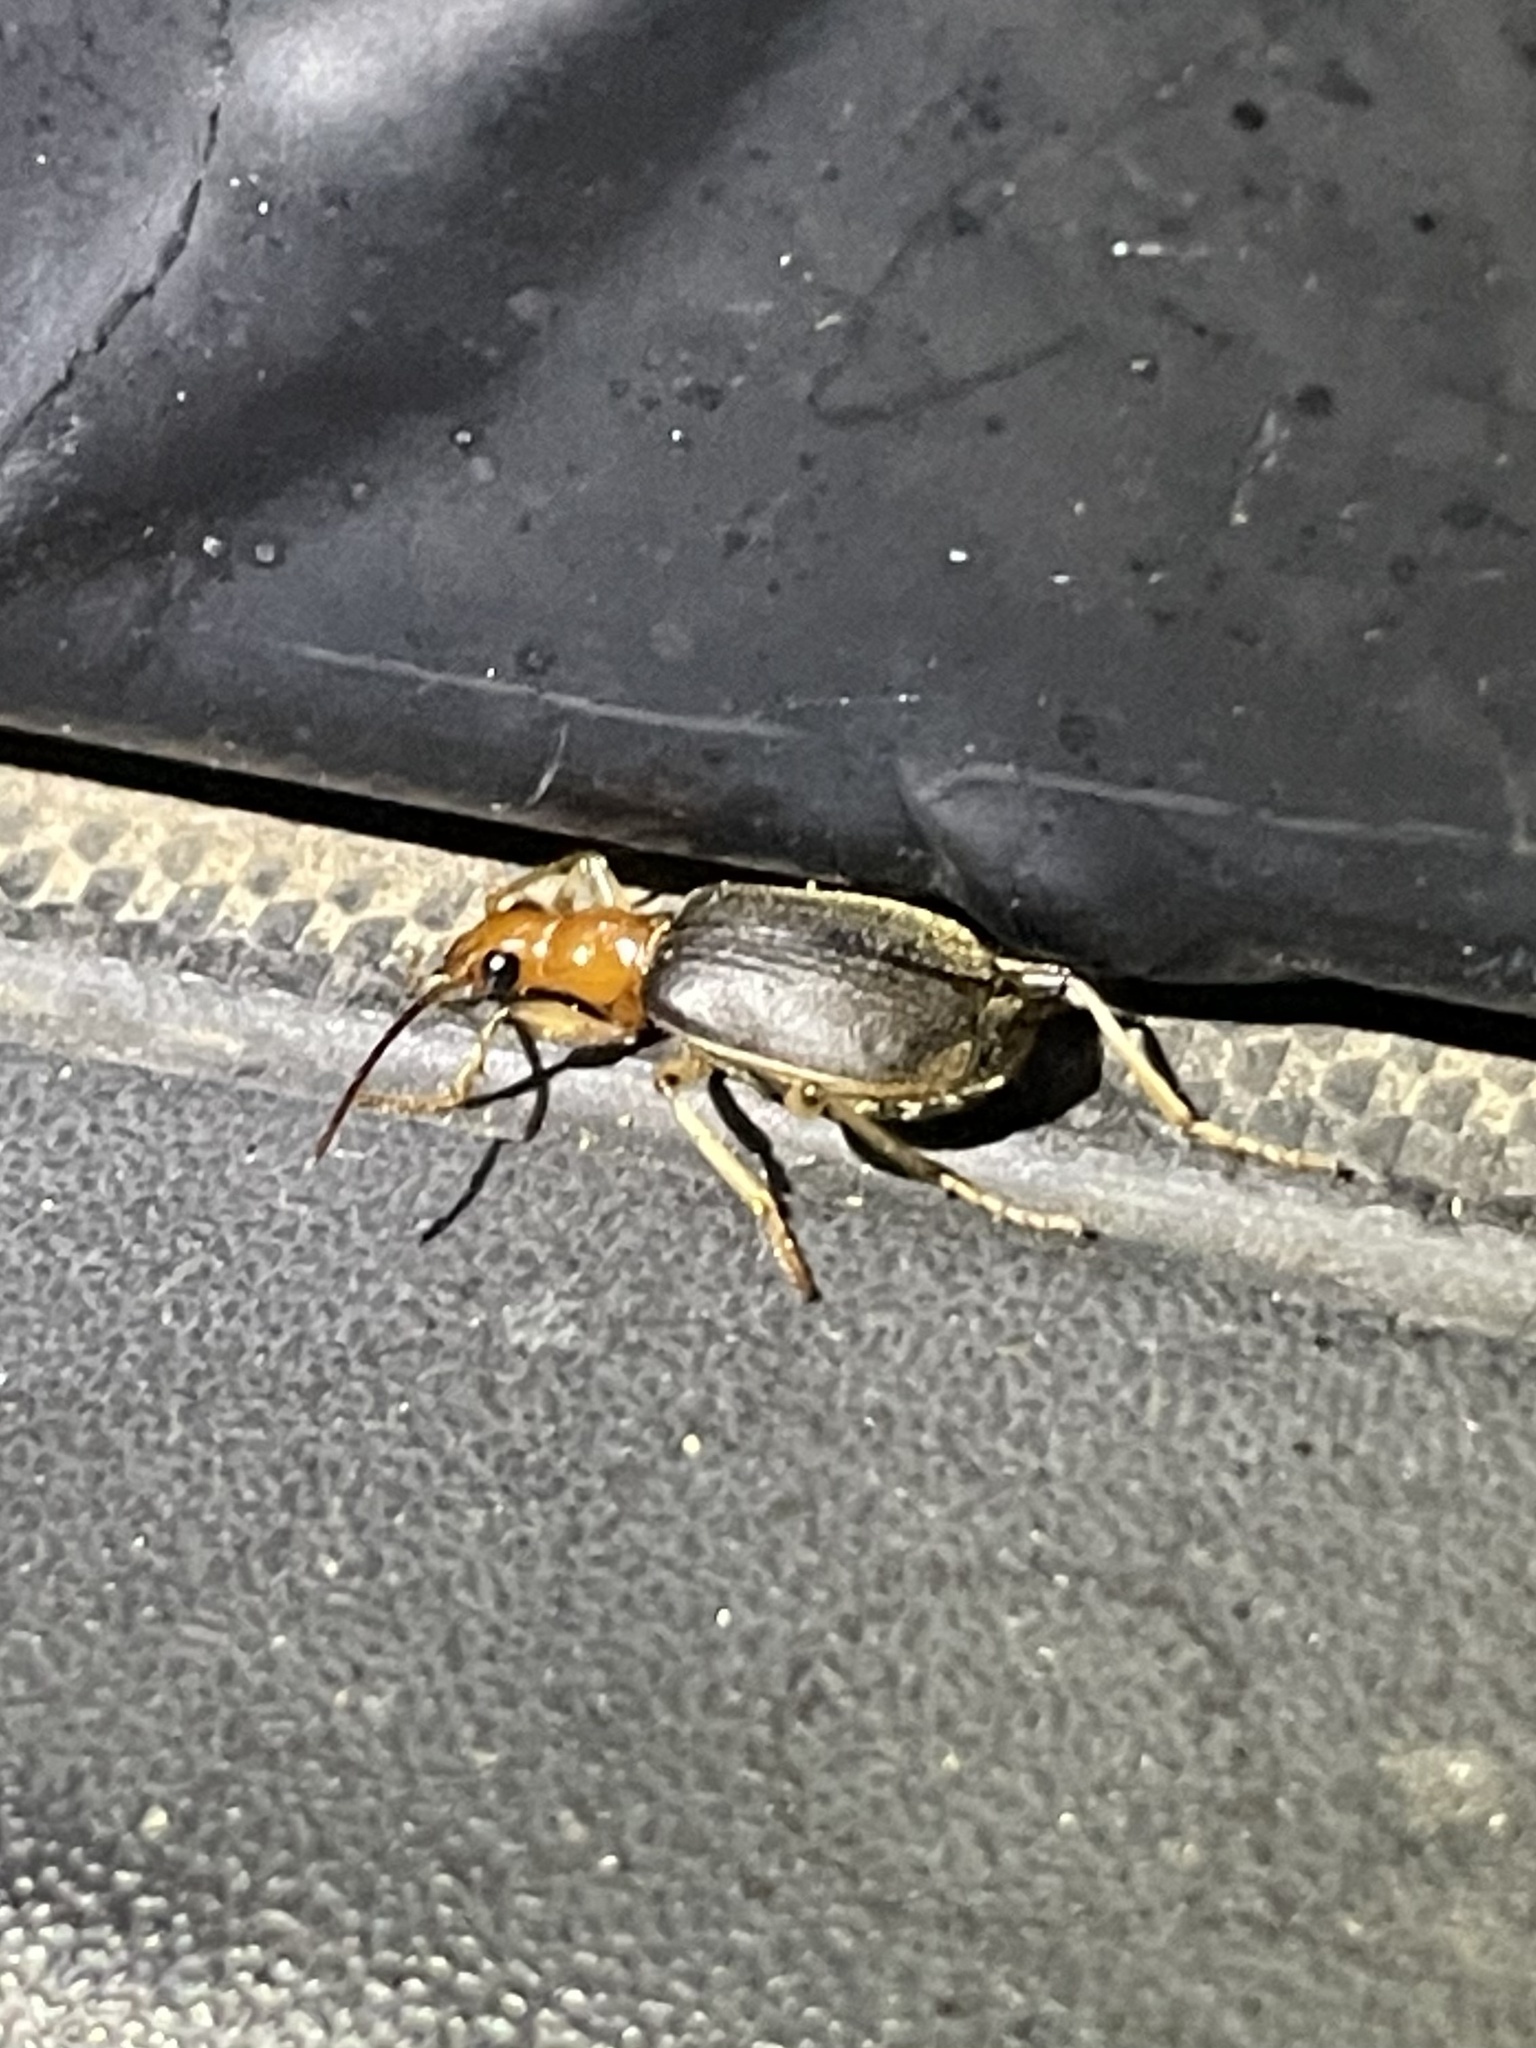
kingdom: Animalia
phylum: Arthropoda
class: Insecta
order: Coleoptera
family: Carabidae
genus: Brachinus
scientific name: Brachinus adustipennis
